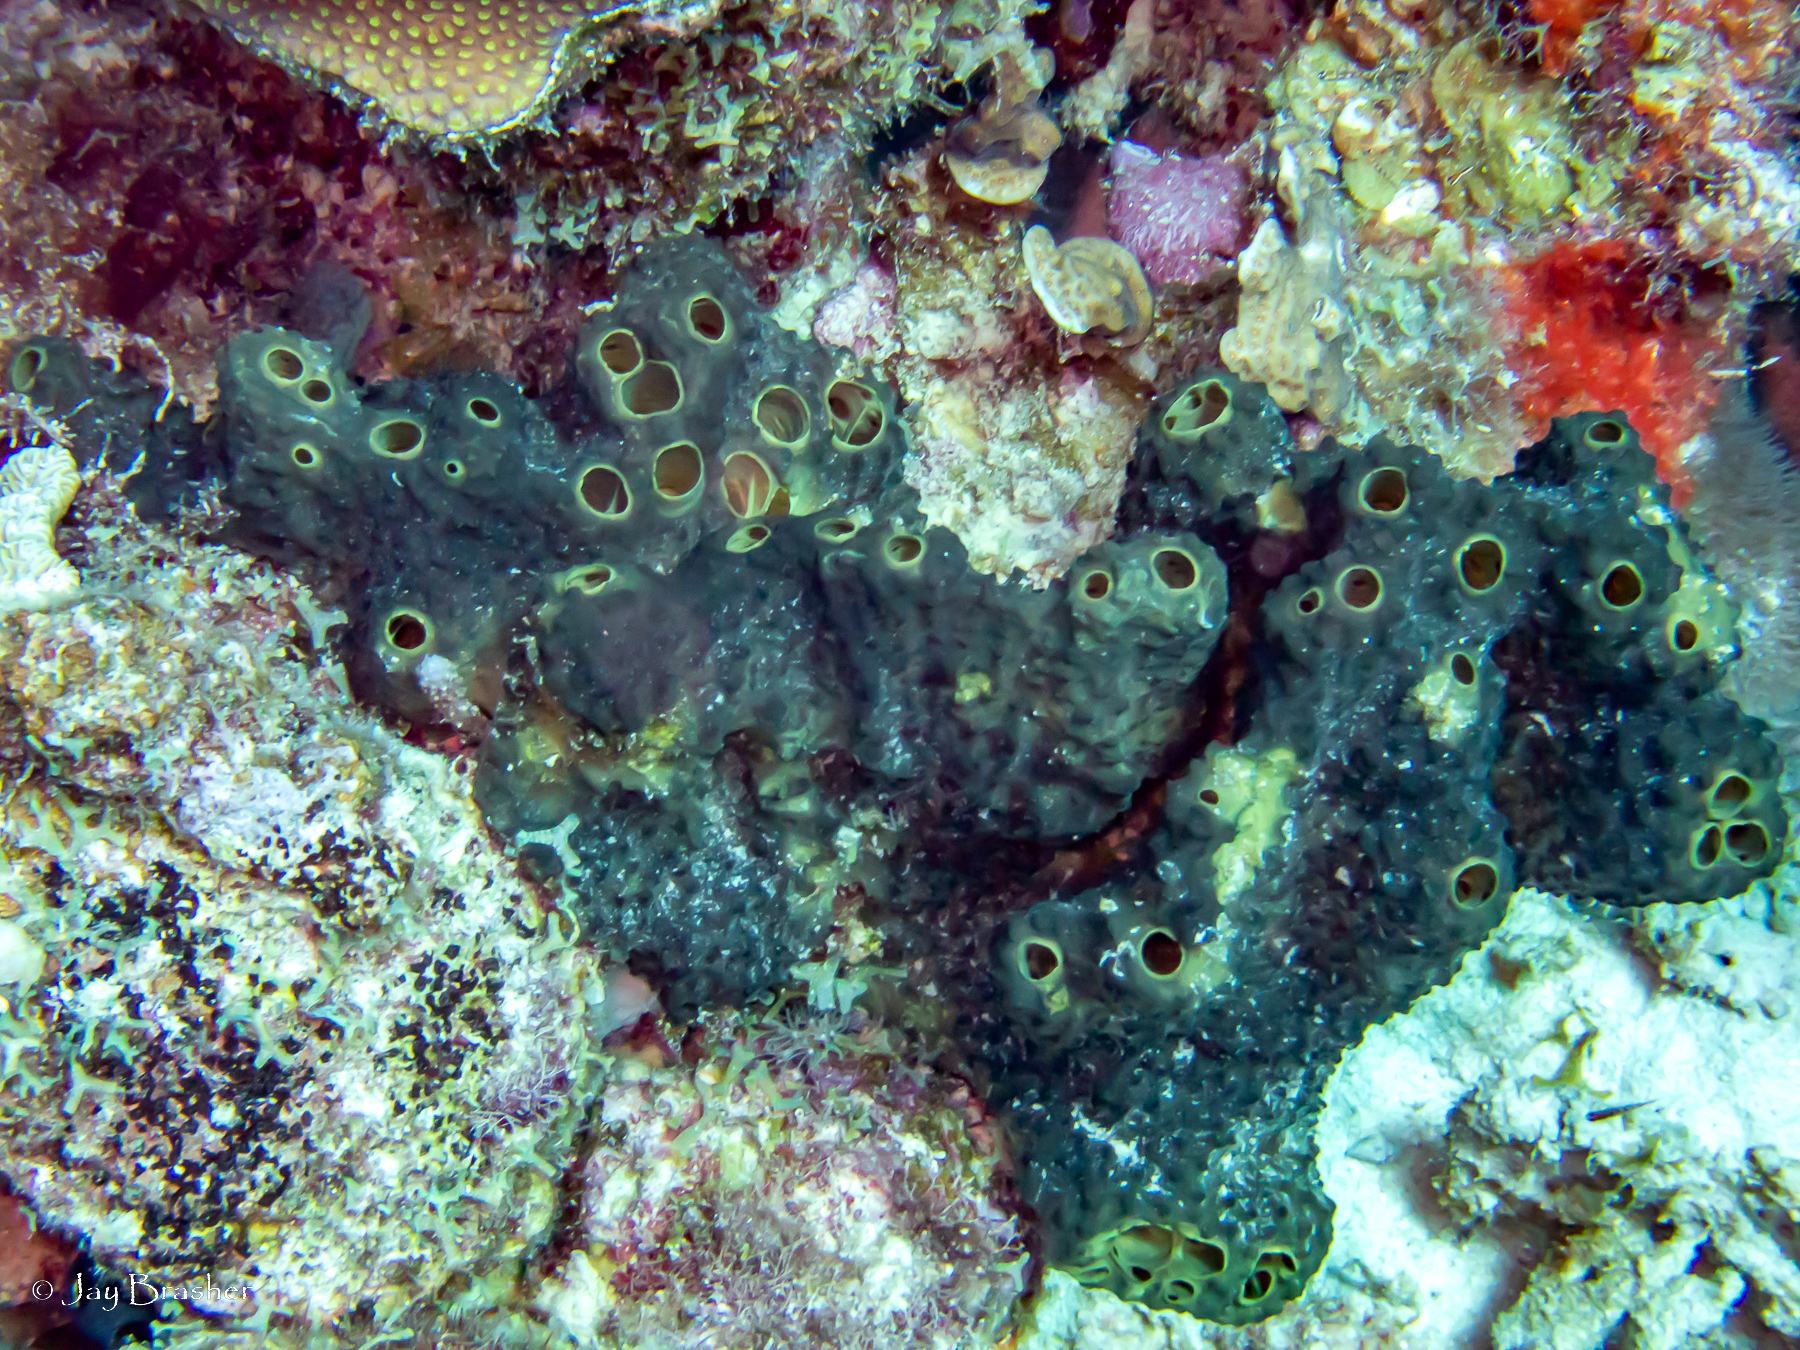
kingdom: Animalia
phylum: Porifera
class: Demospongiae
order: Dictyoceratida
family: Thorectidae
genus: Smenospongia
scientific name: Smenospongia conulosa
